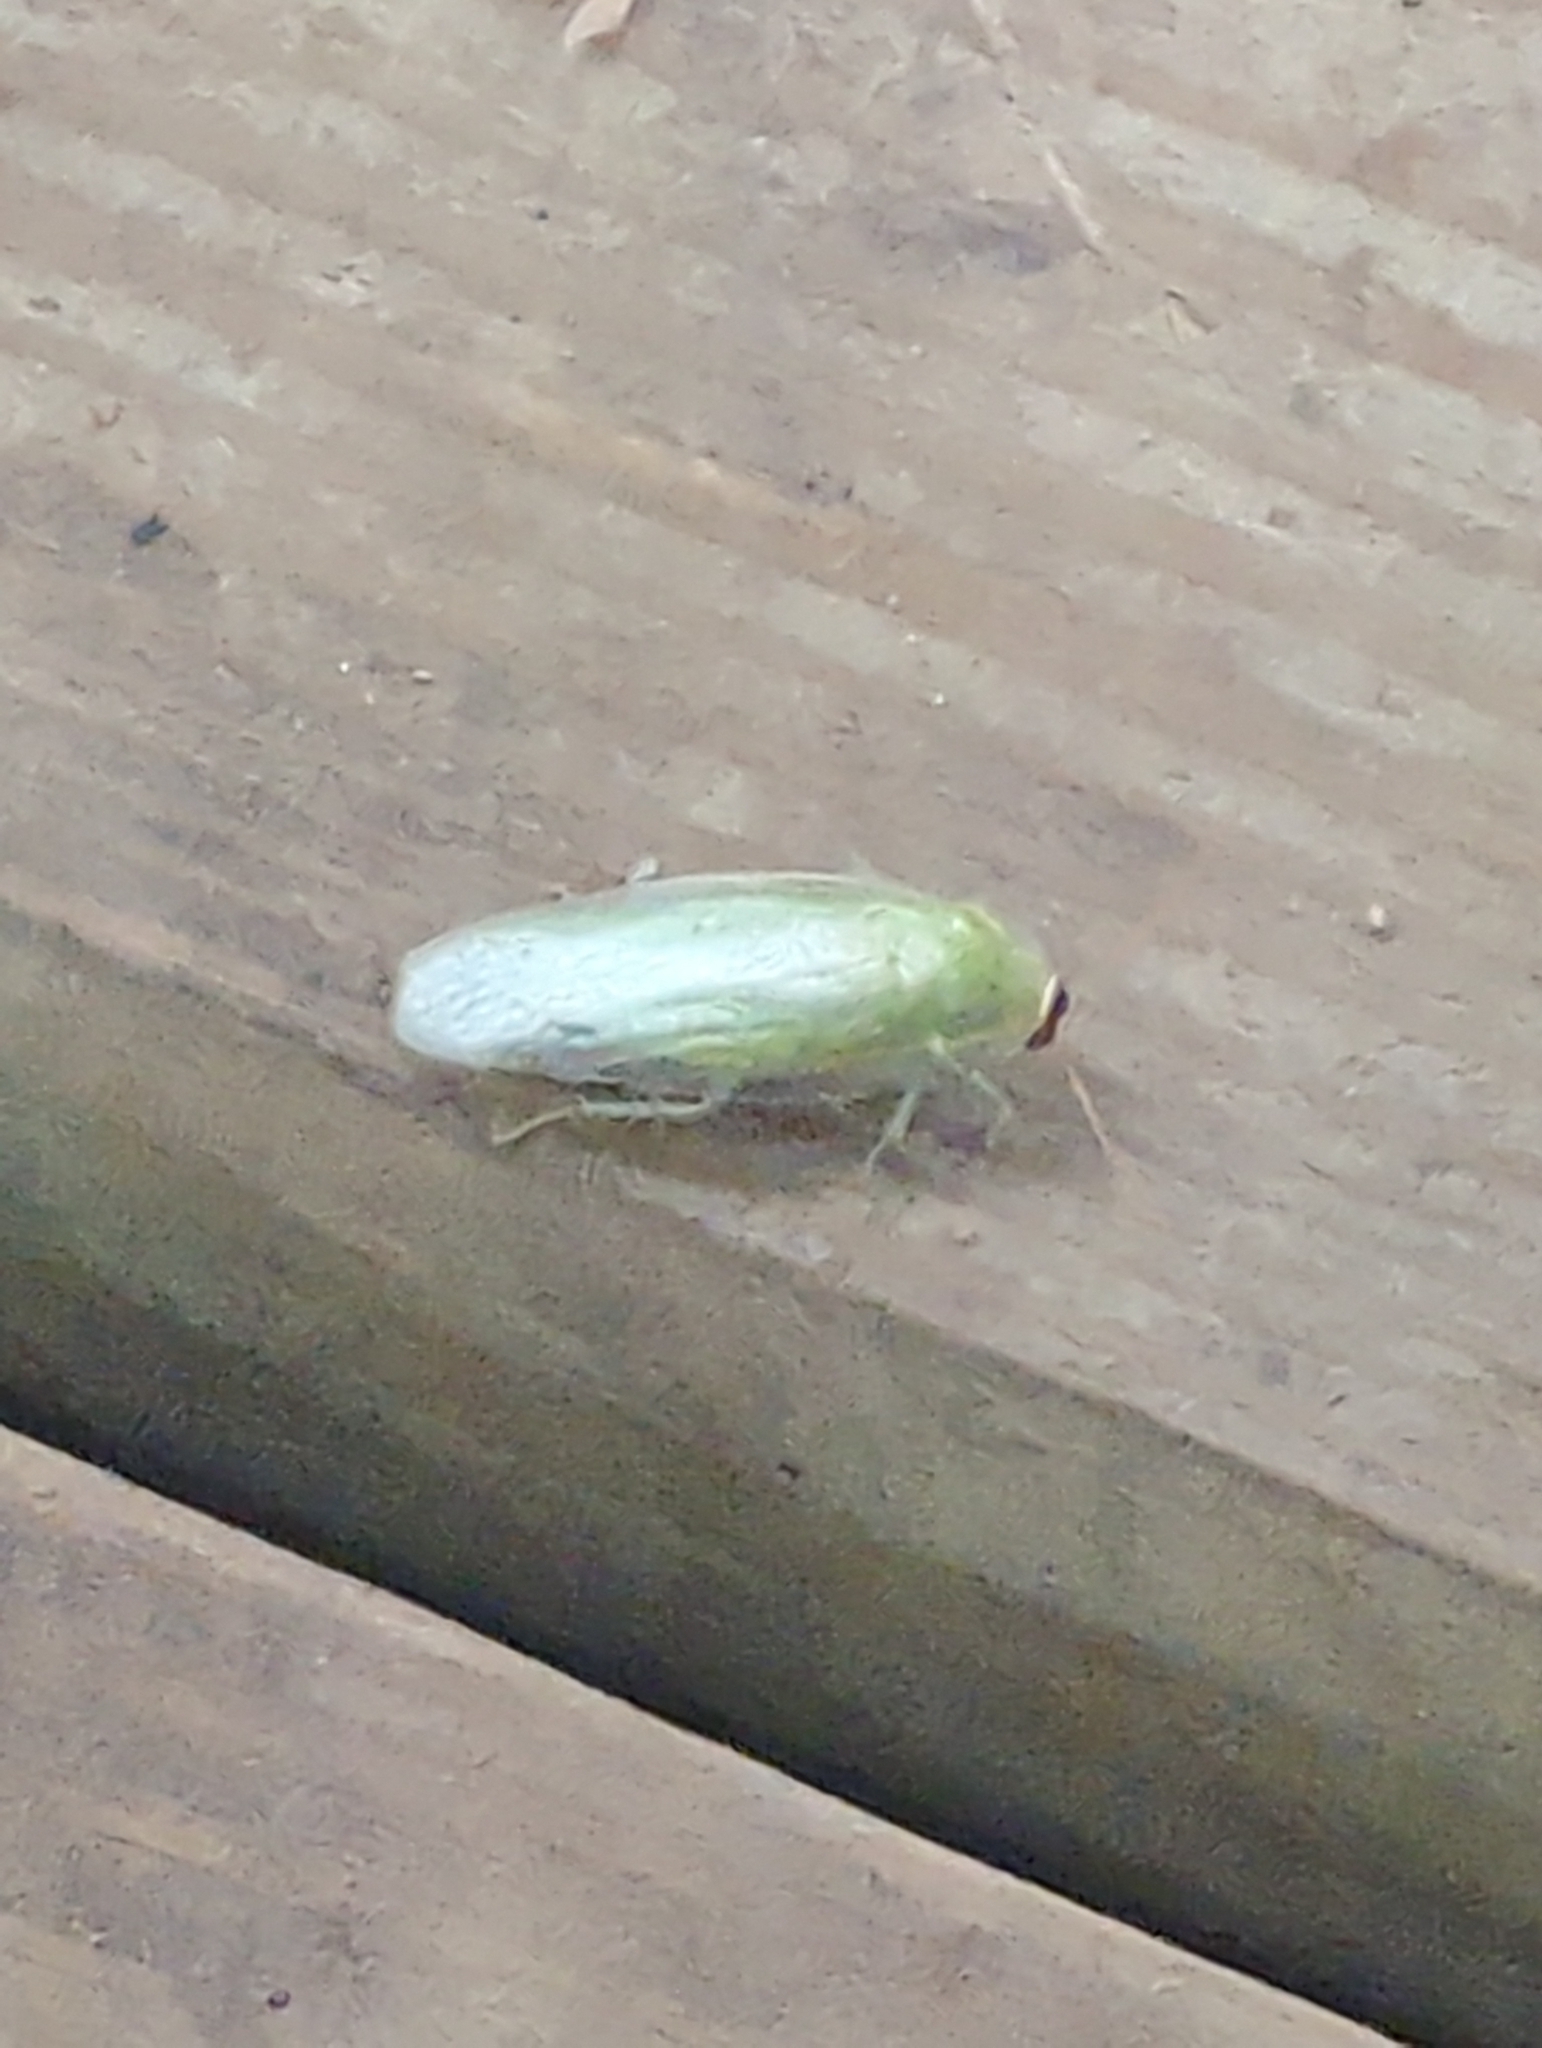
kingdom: Animalia
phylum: Arthropoda
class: Insecta
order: Blattodea
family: Blaberidae
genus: Panchlora
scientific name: Panchlora nivea
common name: Cuban cockroach
